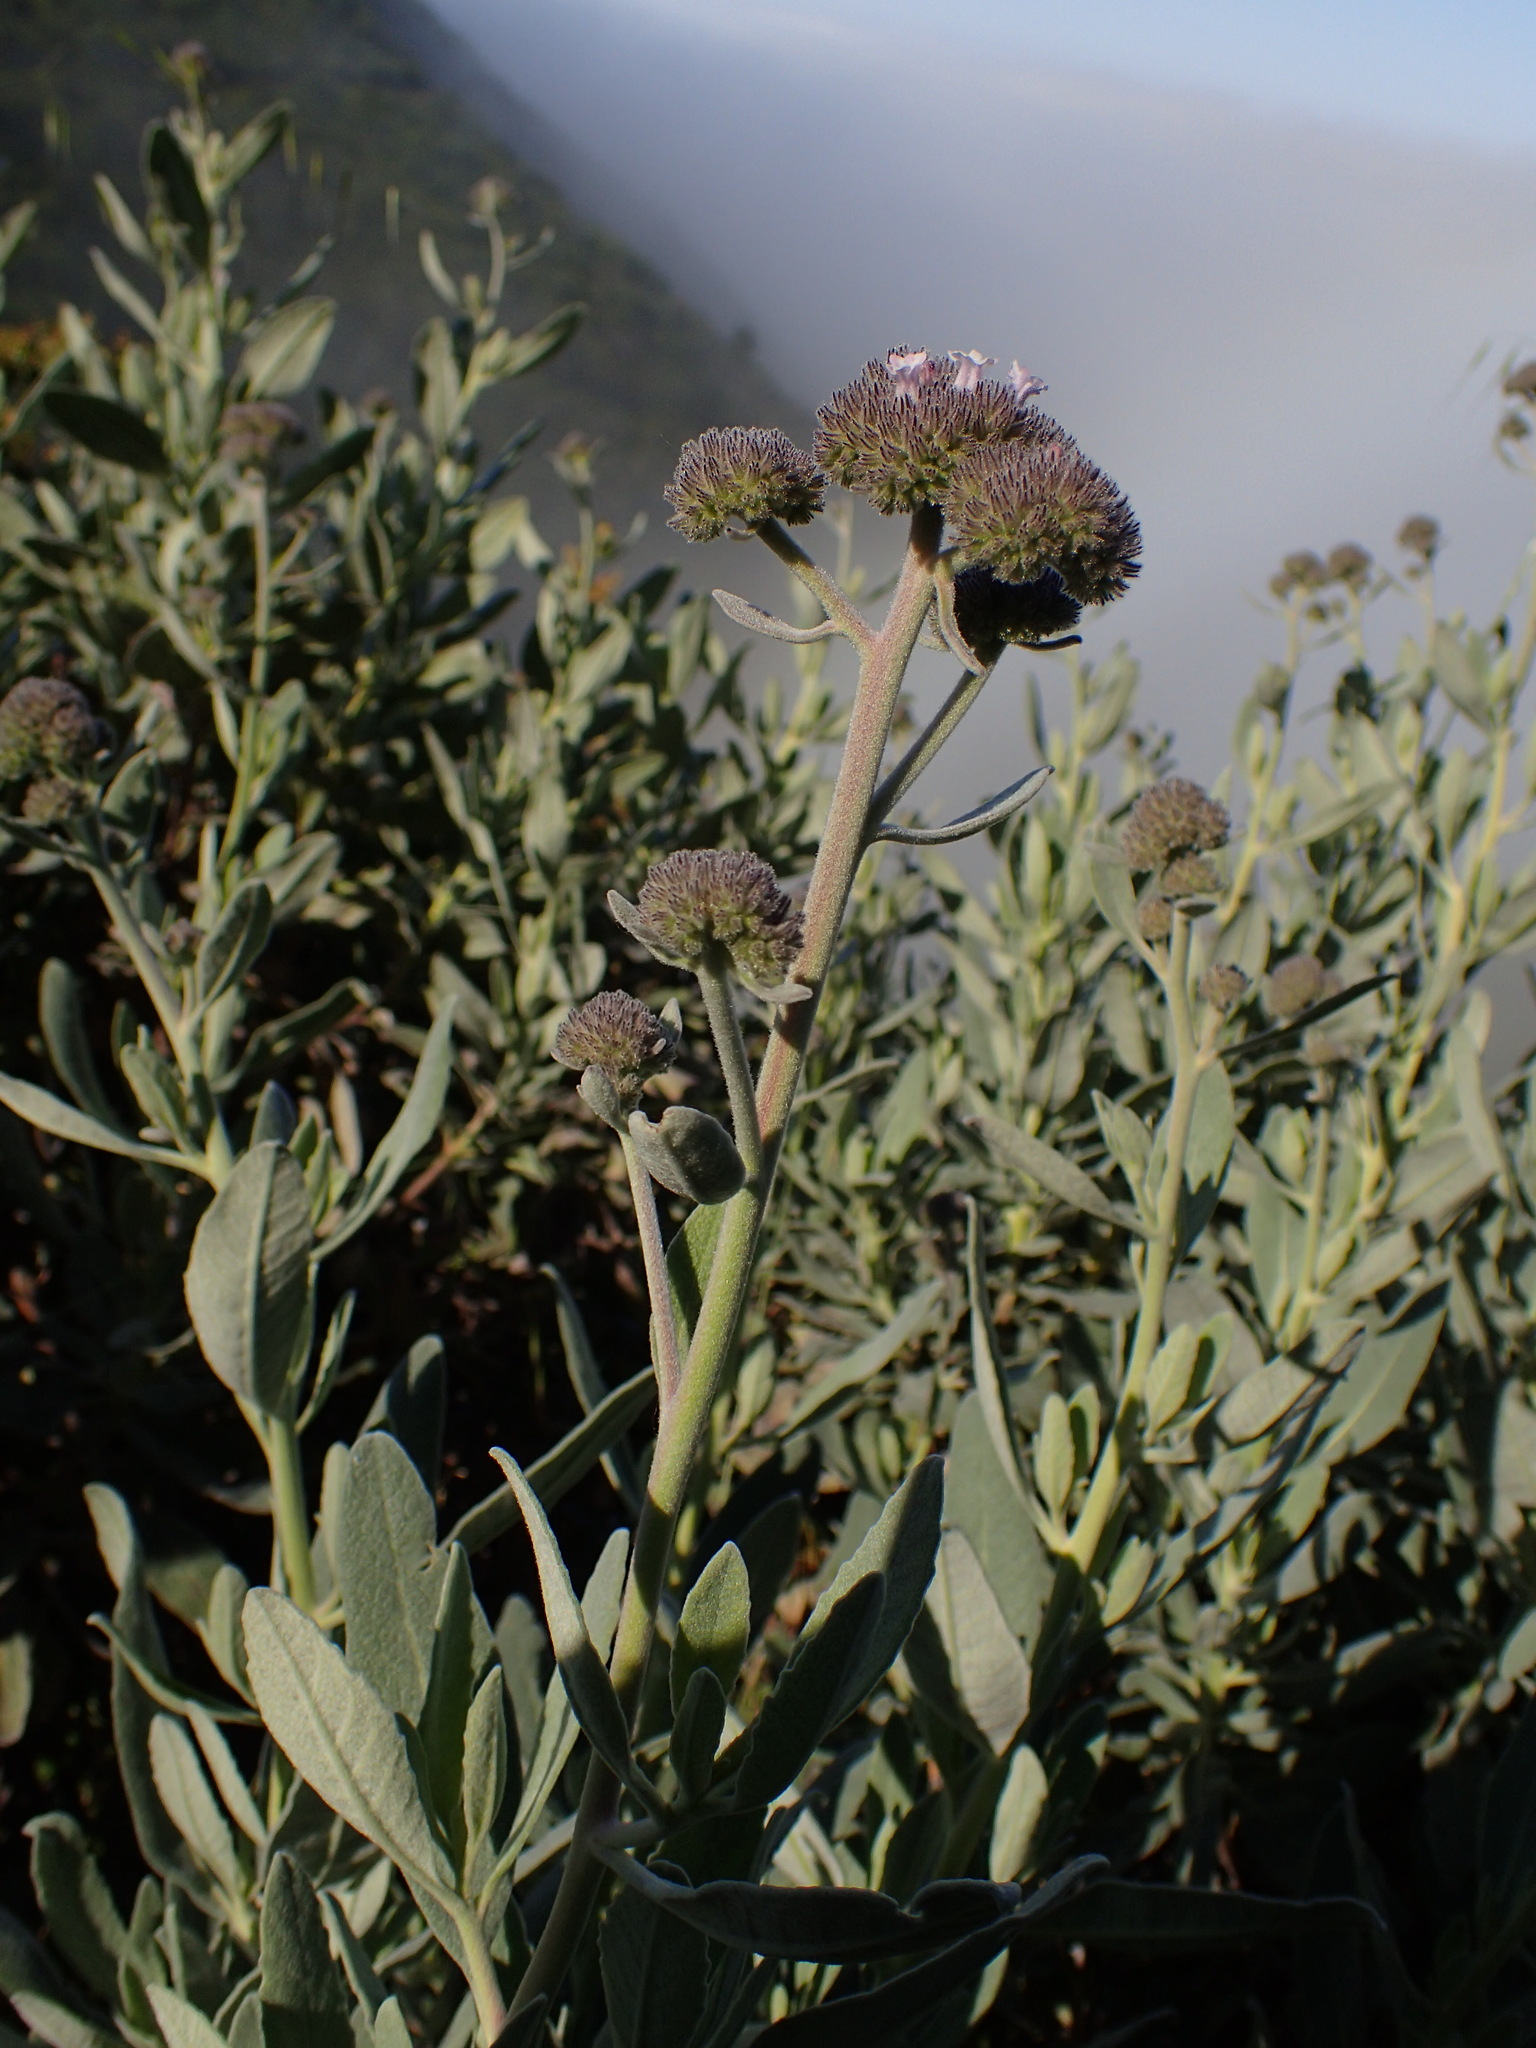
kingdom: Plantae
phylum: Tracheophyta
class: Magnoliopsida
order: Boraginales
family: Namaceae
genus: Eriodictyon
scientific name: Eriodictyon traskiae
